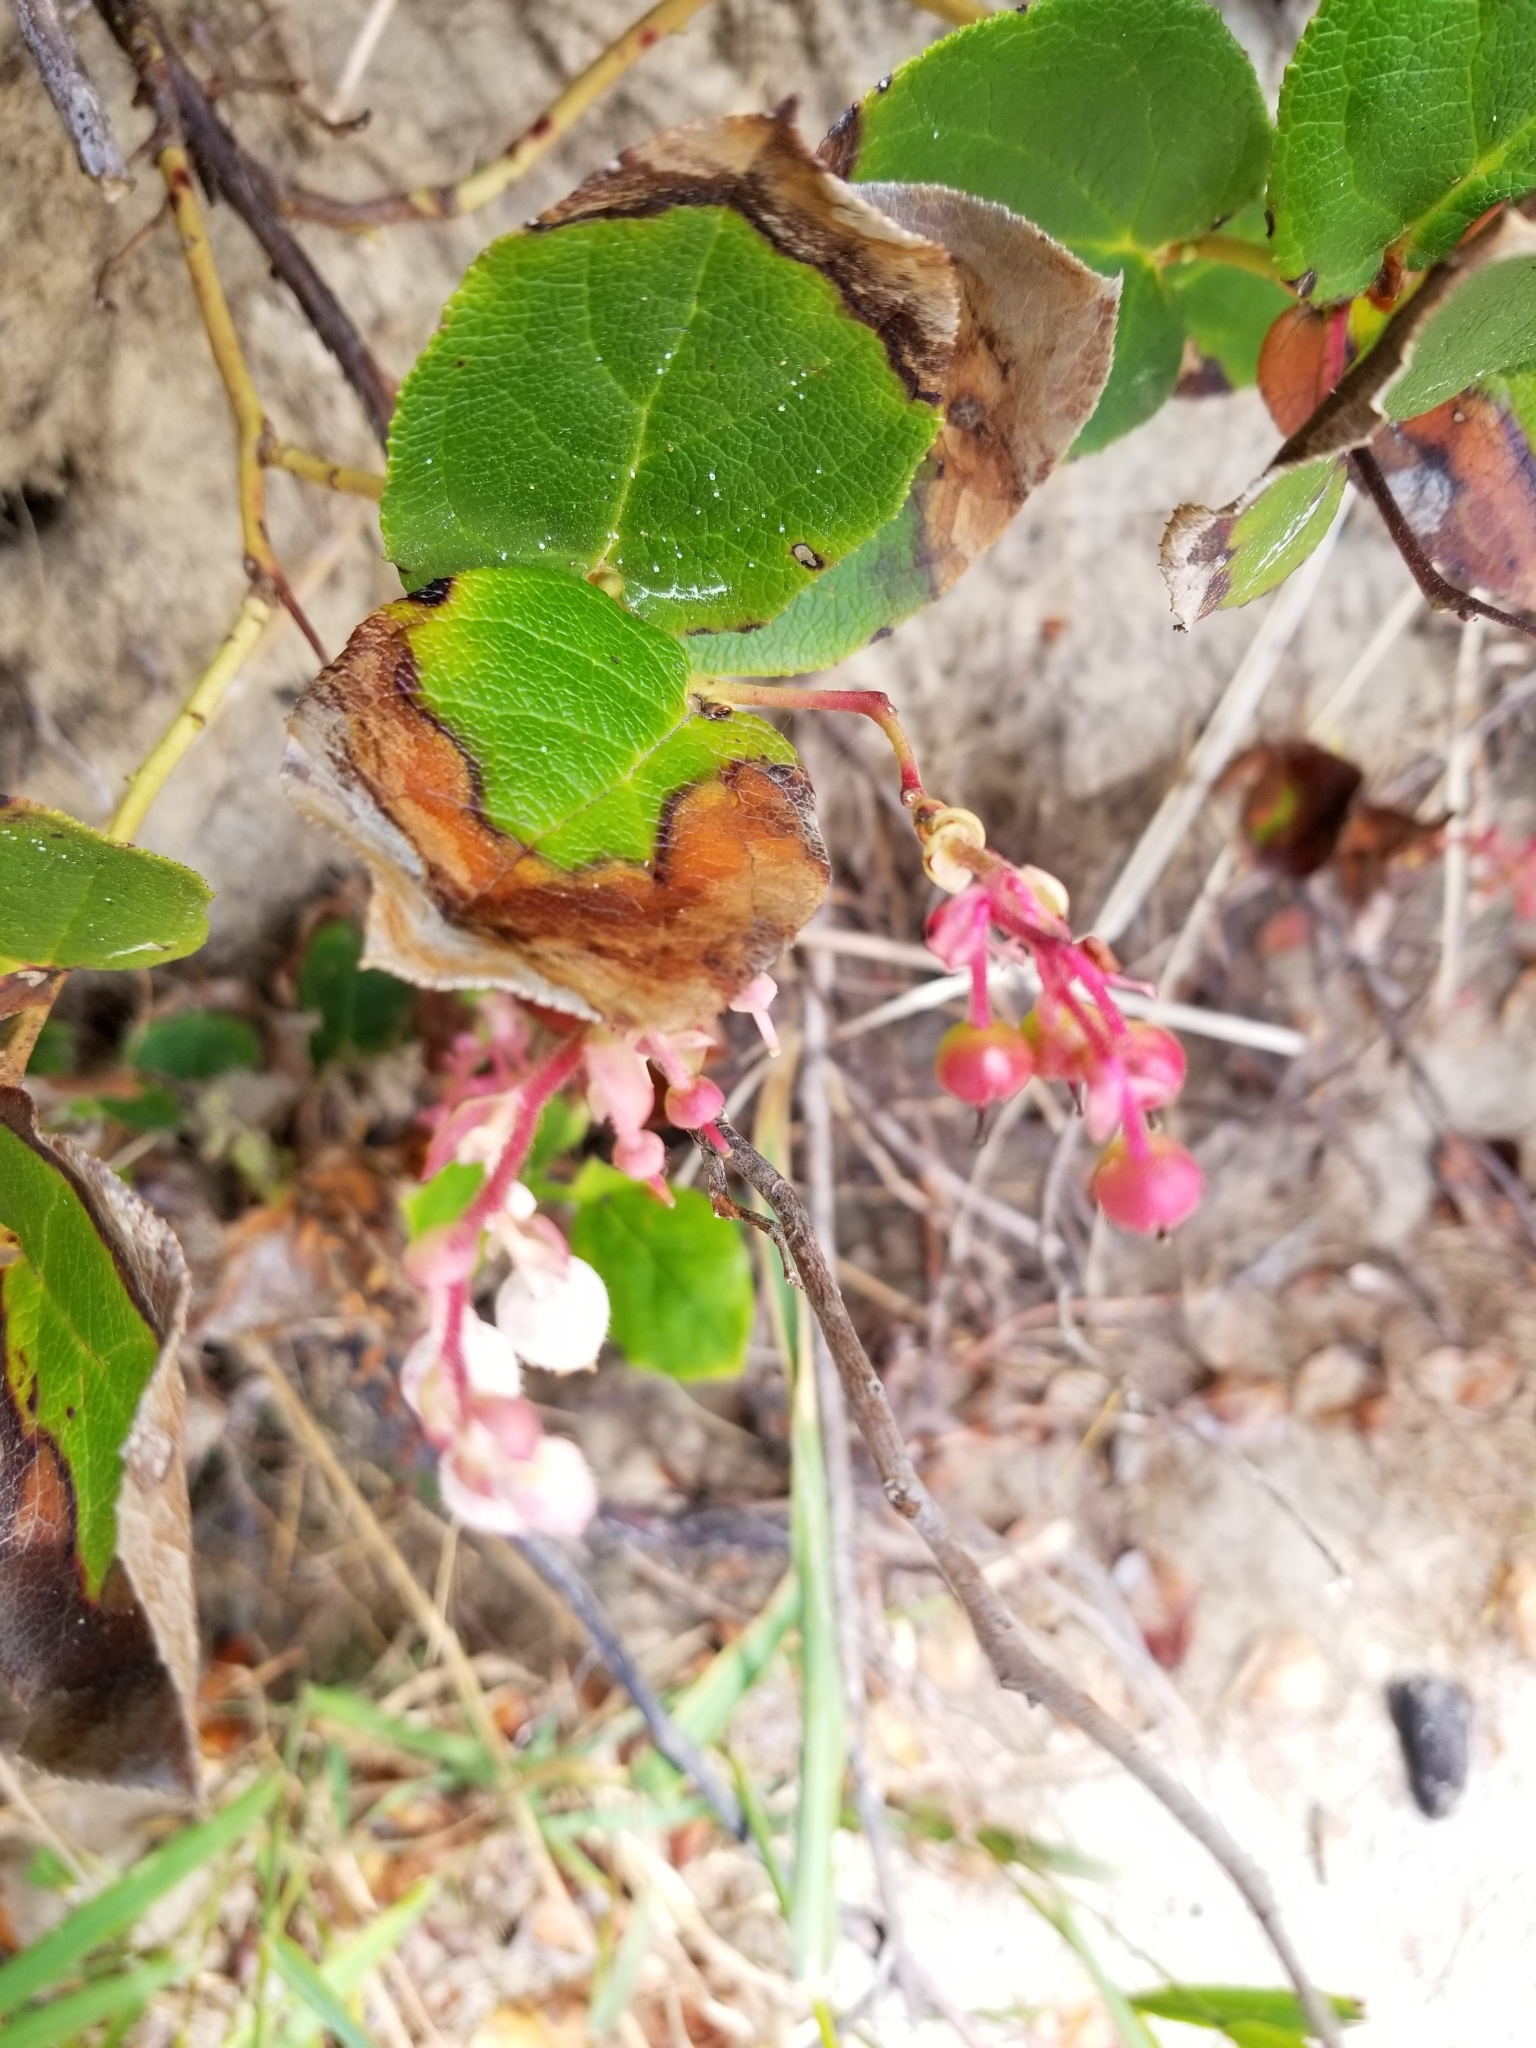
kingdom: Plantae
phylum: Tracheophyta
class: Magnoliopsida
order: Ericales
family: Ericaceae
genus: Gaultheria
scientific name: Gaultheria shallon
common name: Shallon
